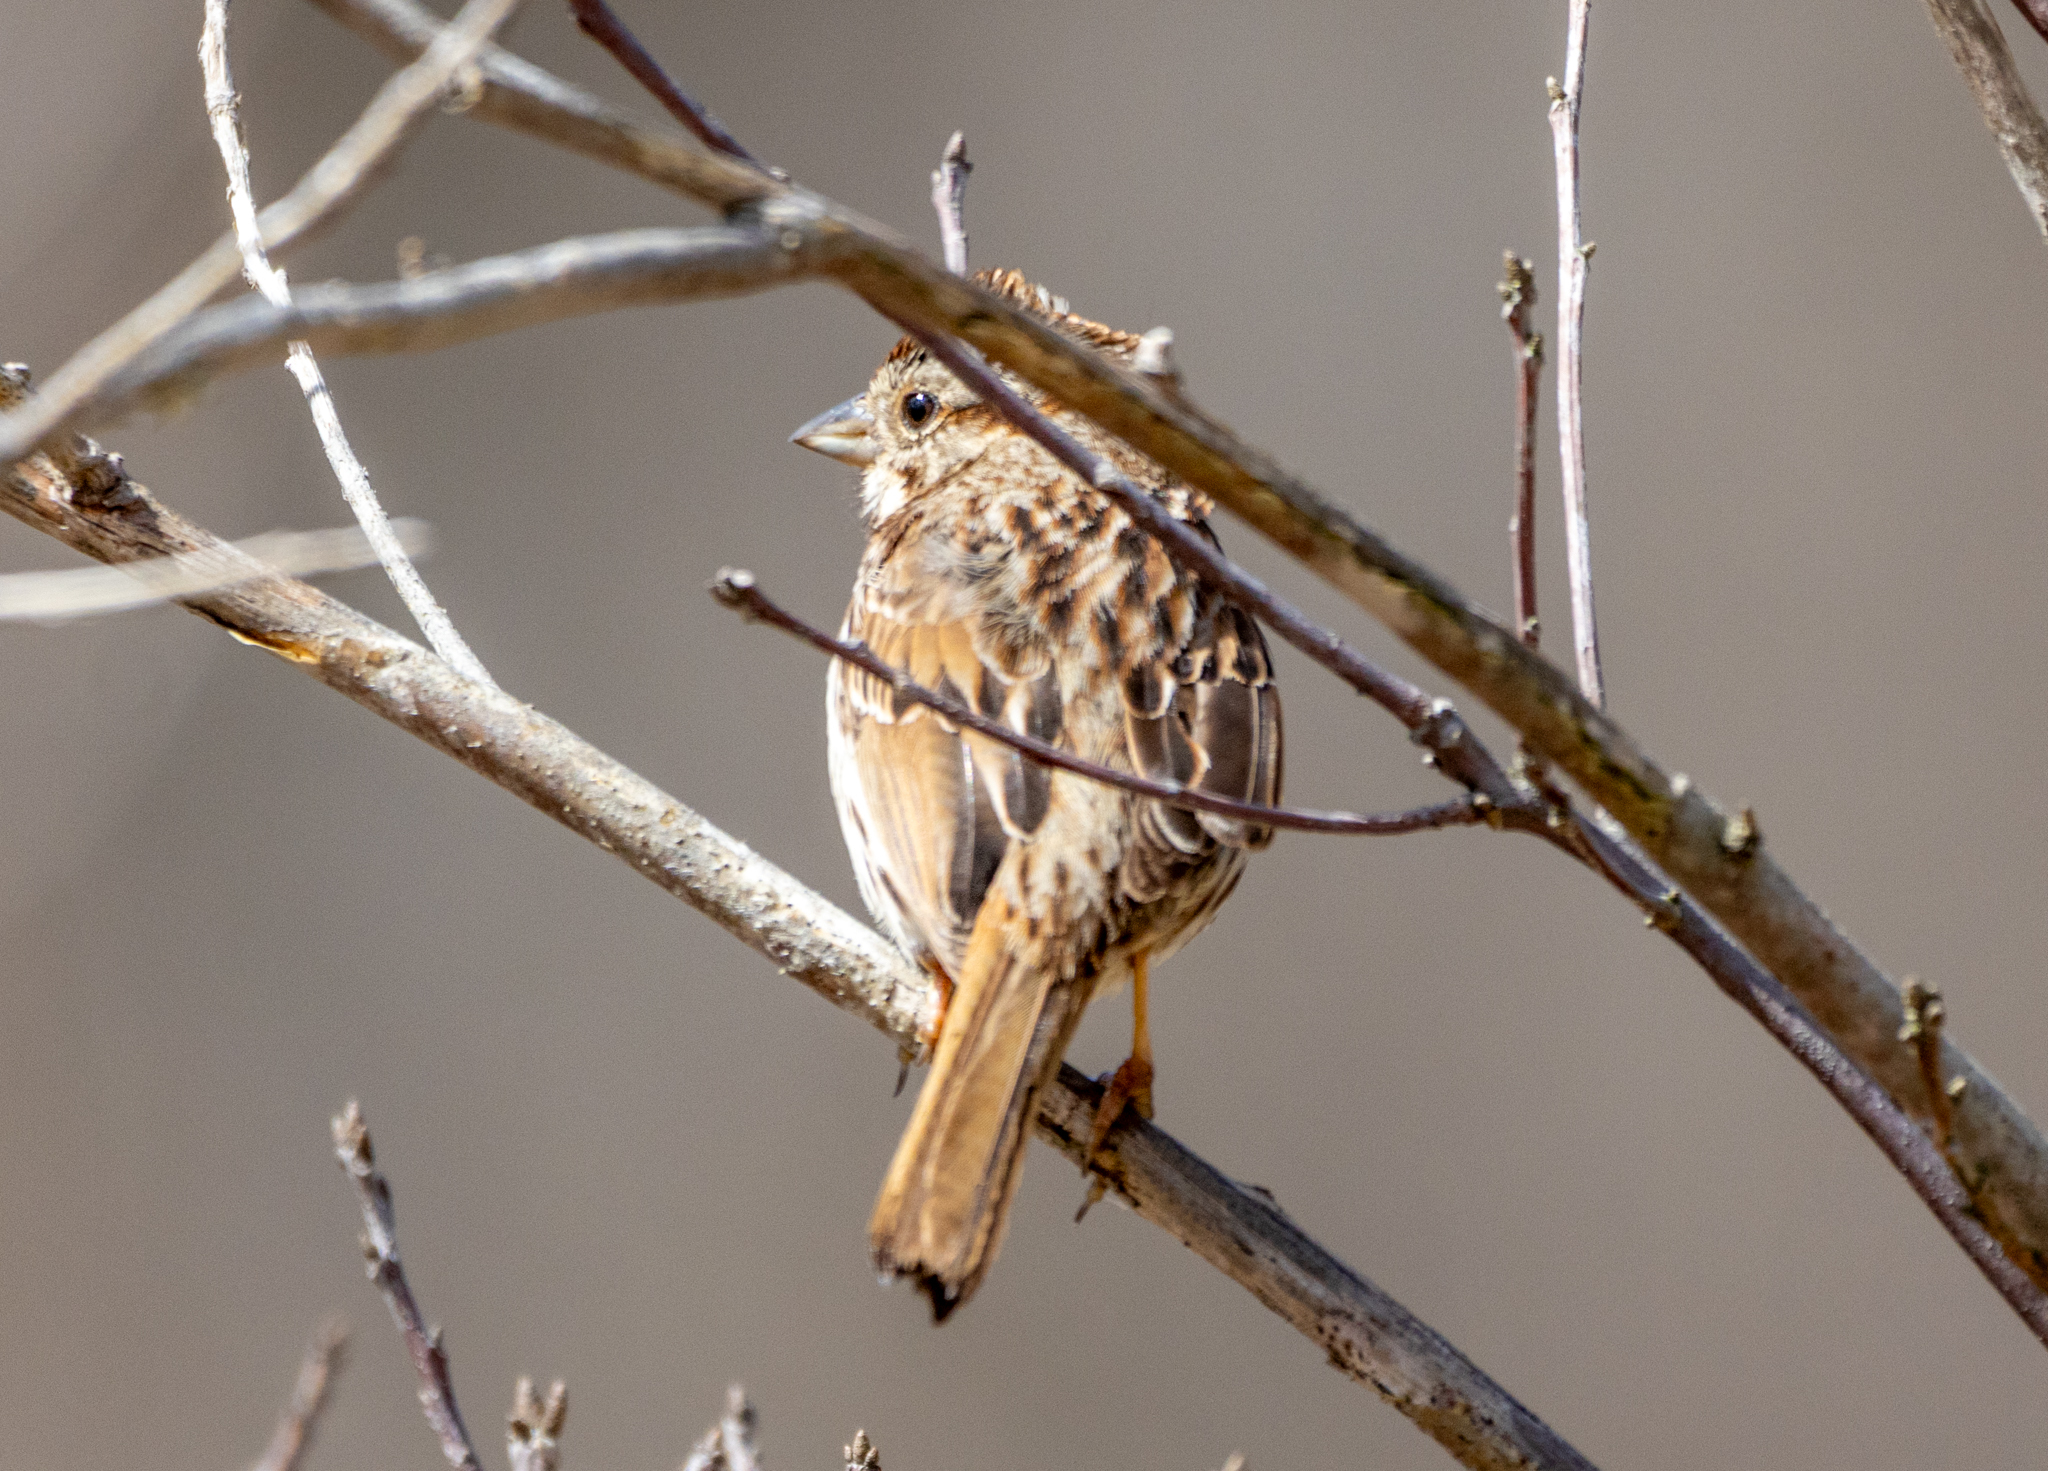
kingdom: Animalia
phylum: Chordata
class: Aves
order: Passeriformes
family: Passerellidae
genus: Melospiza
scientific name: Melospiza melodia
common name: Song sparrow
